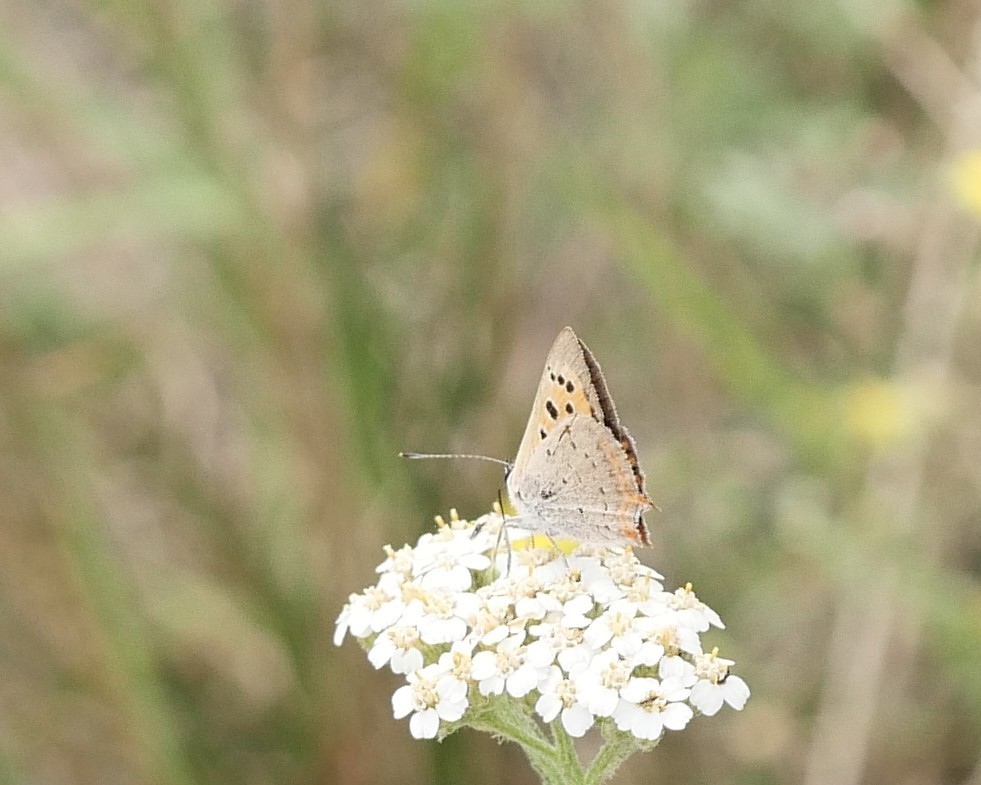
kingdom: Animalia
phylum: Arthropoda
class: Insecta
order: Lepidoptera
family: Lycaenidae
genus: Lycaena
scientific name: Lycaena phlaeas
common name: Small copper
